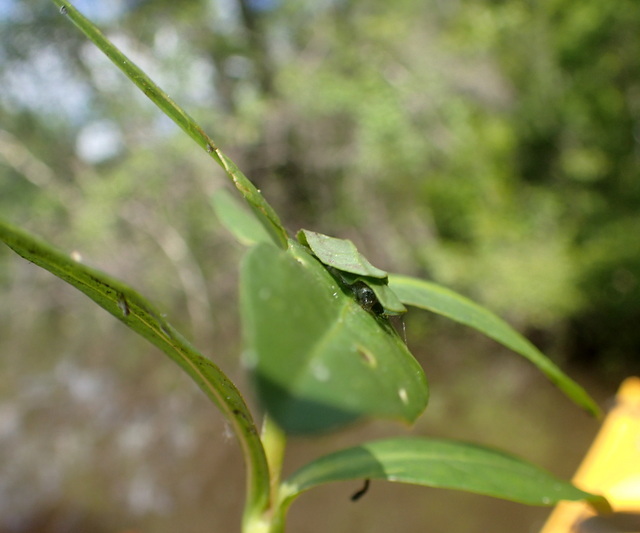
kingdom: Animalia
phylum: Arthropoda
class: Insecta
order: Lepidoptera
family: Crambidae
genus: Herpetogramma
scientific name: Herpetogramma bipunctalis
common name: Southern beet webworm
